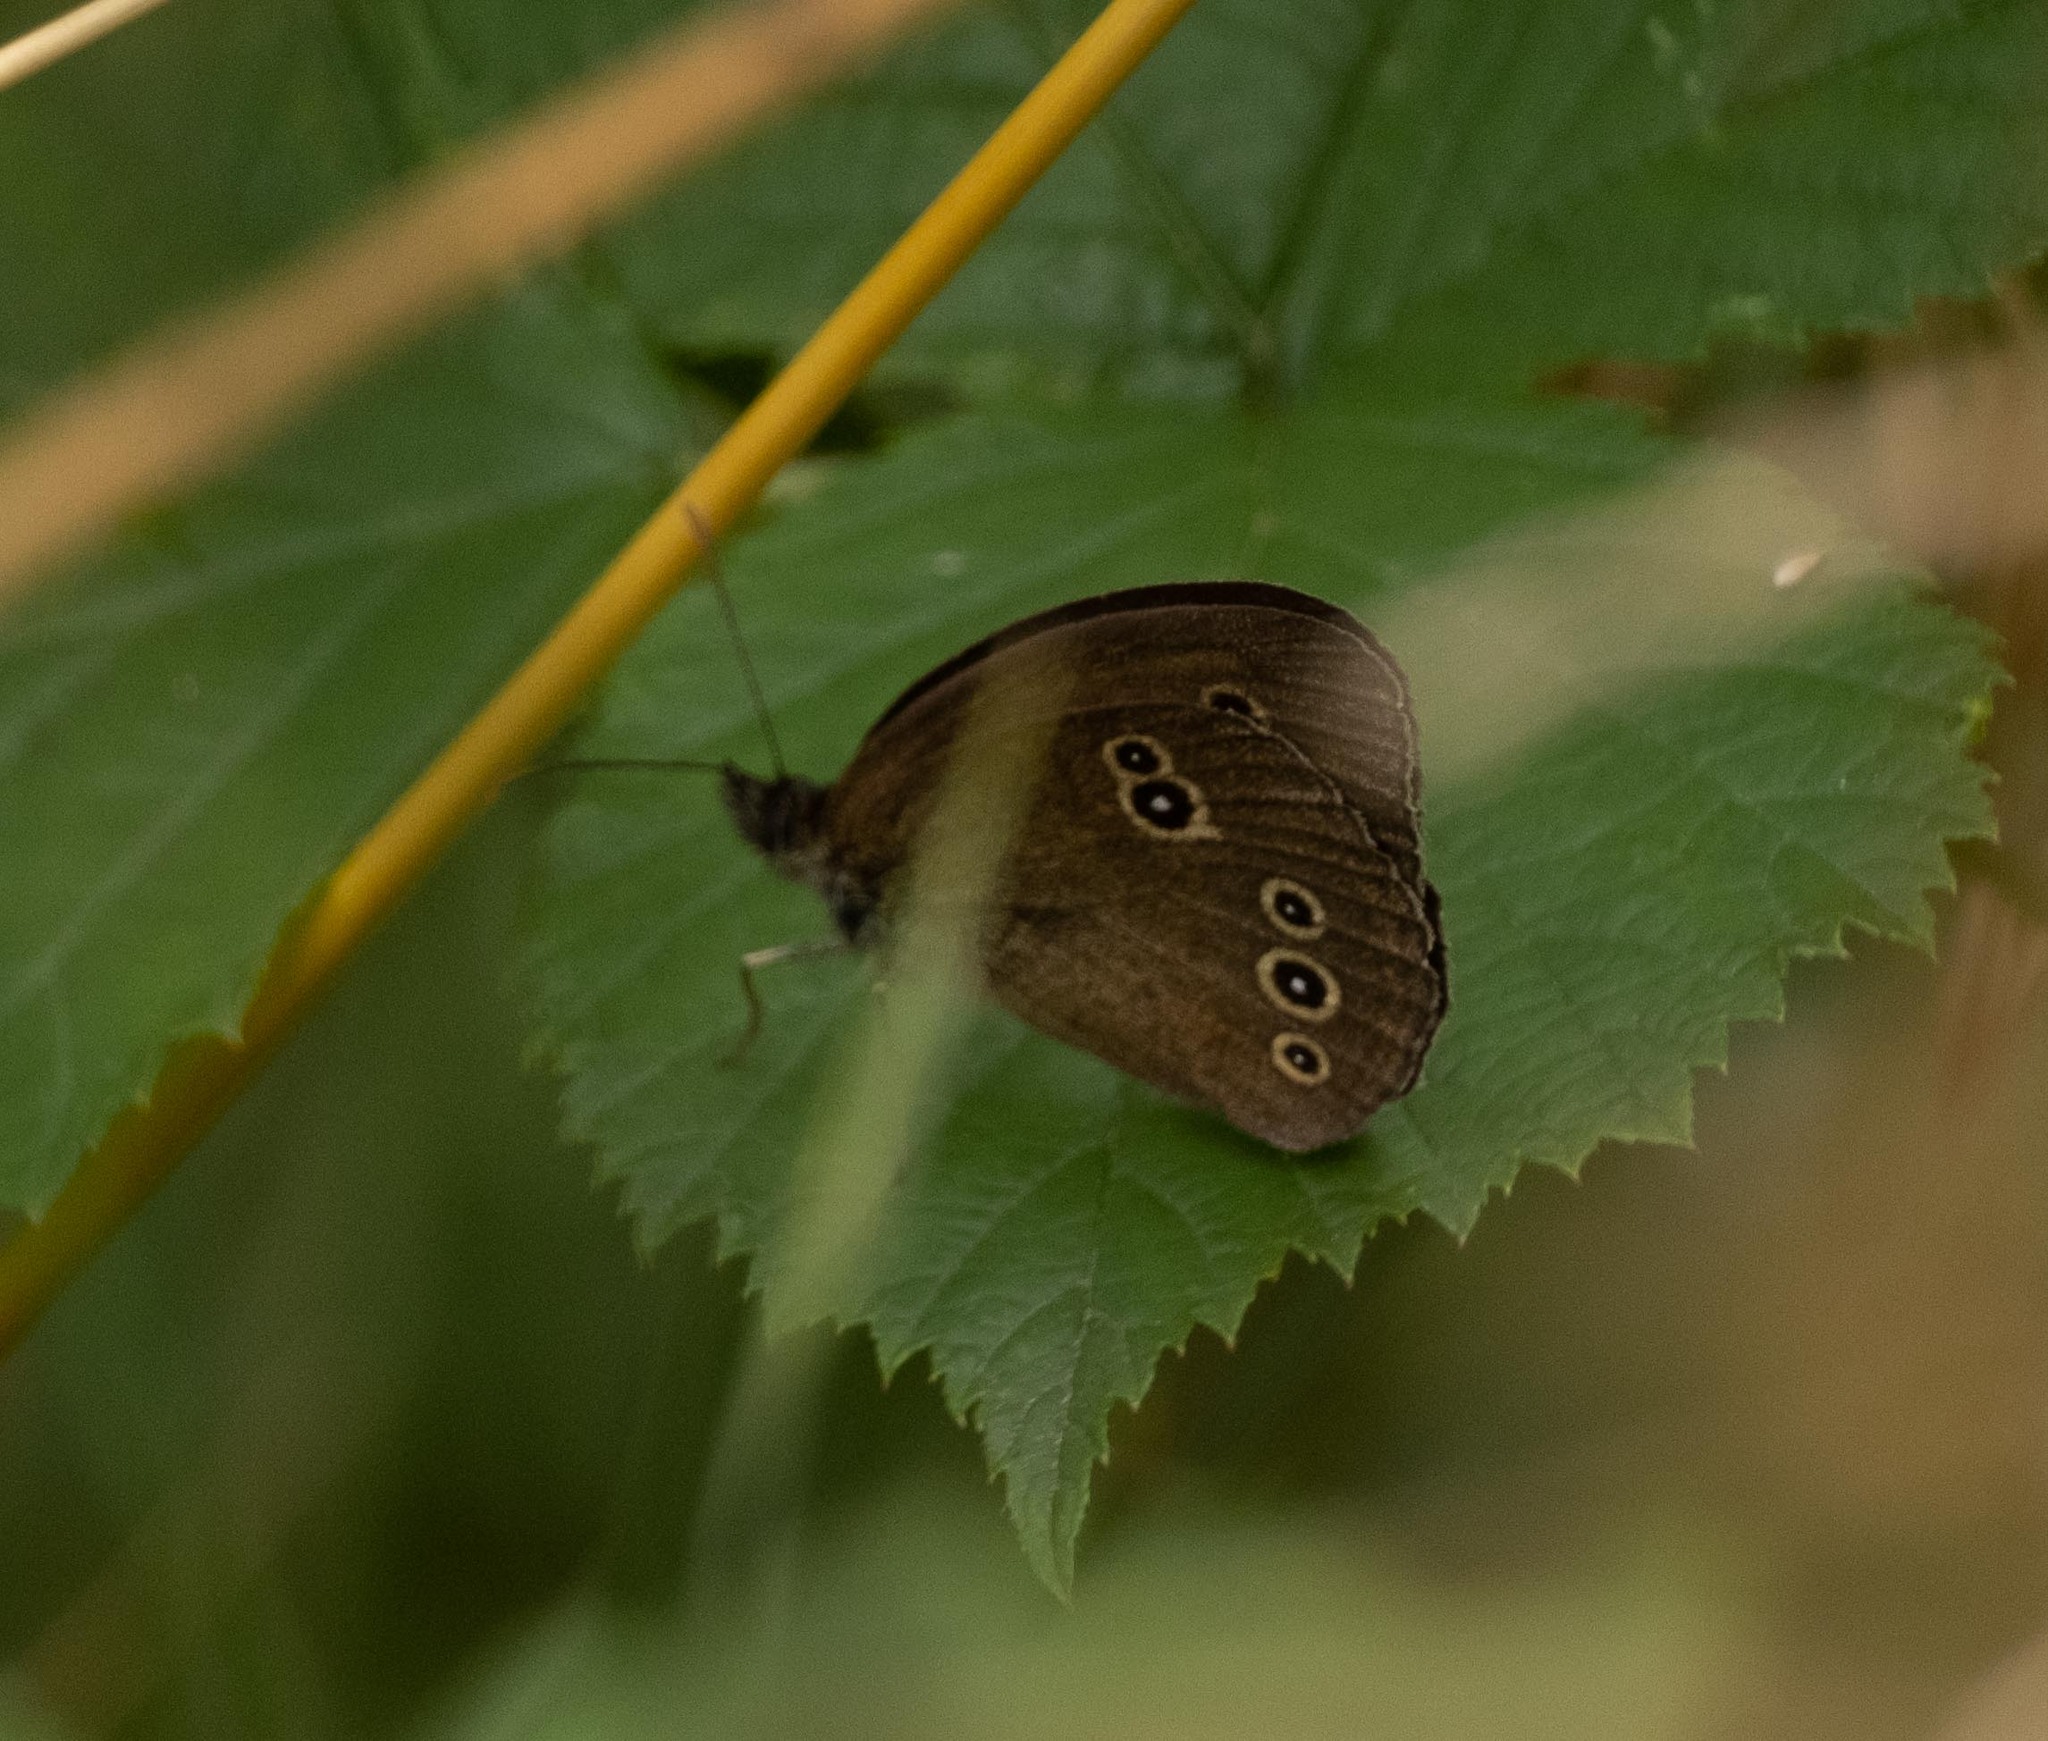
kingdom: Animalia
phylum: Arthropoda
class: Insecta
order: Lepidoptera
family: Nymphalidae
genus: Aphantopus
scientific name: Aphantopus hyperantus
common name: Ringlet
